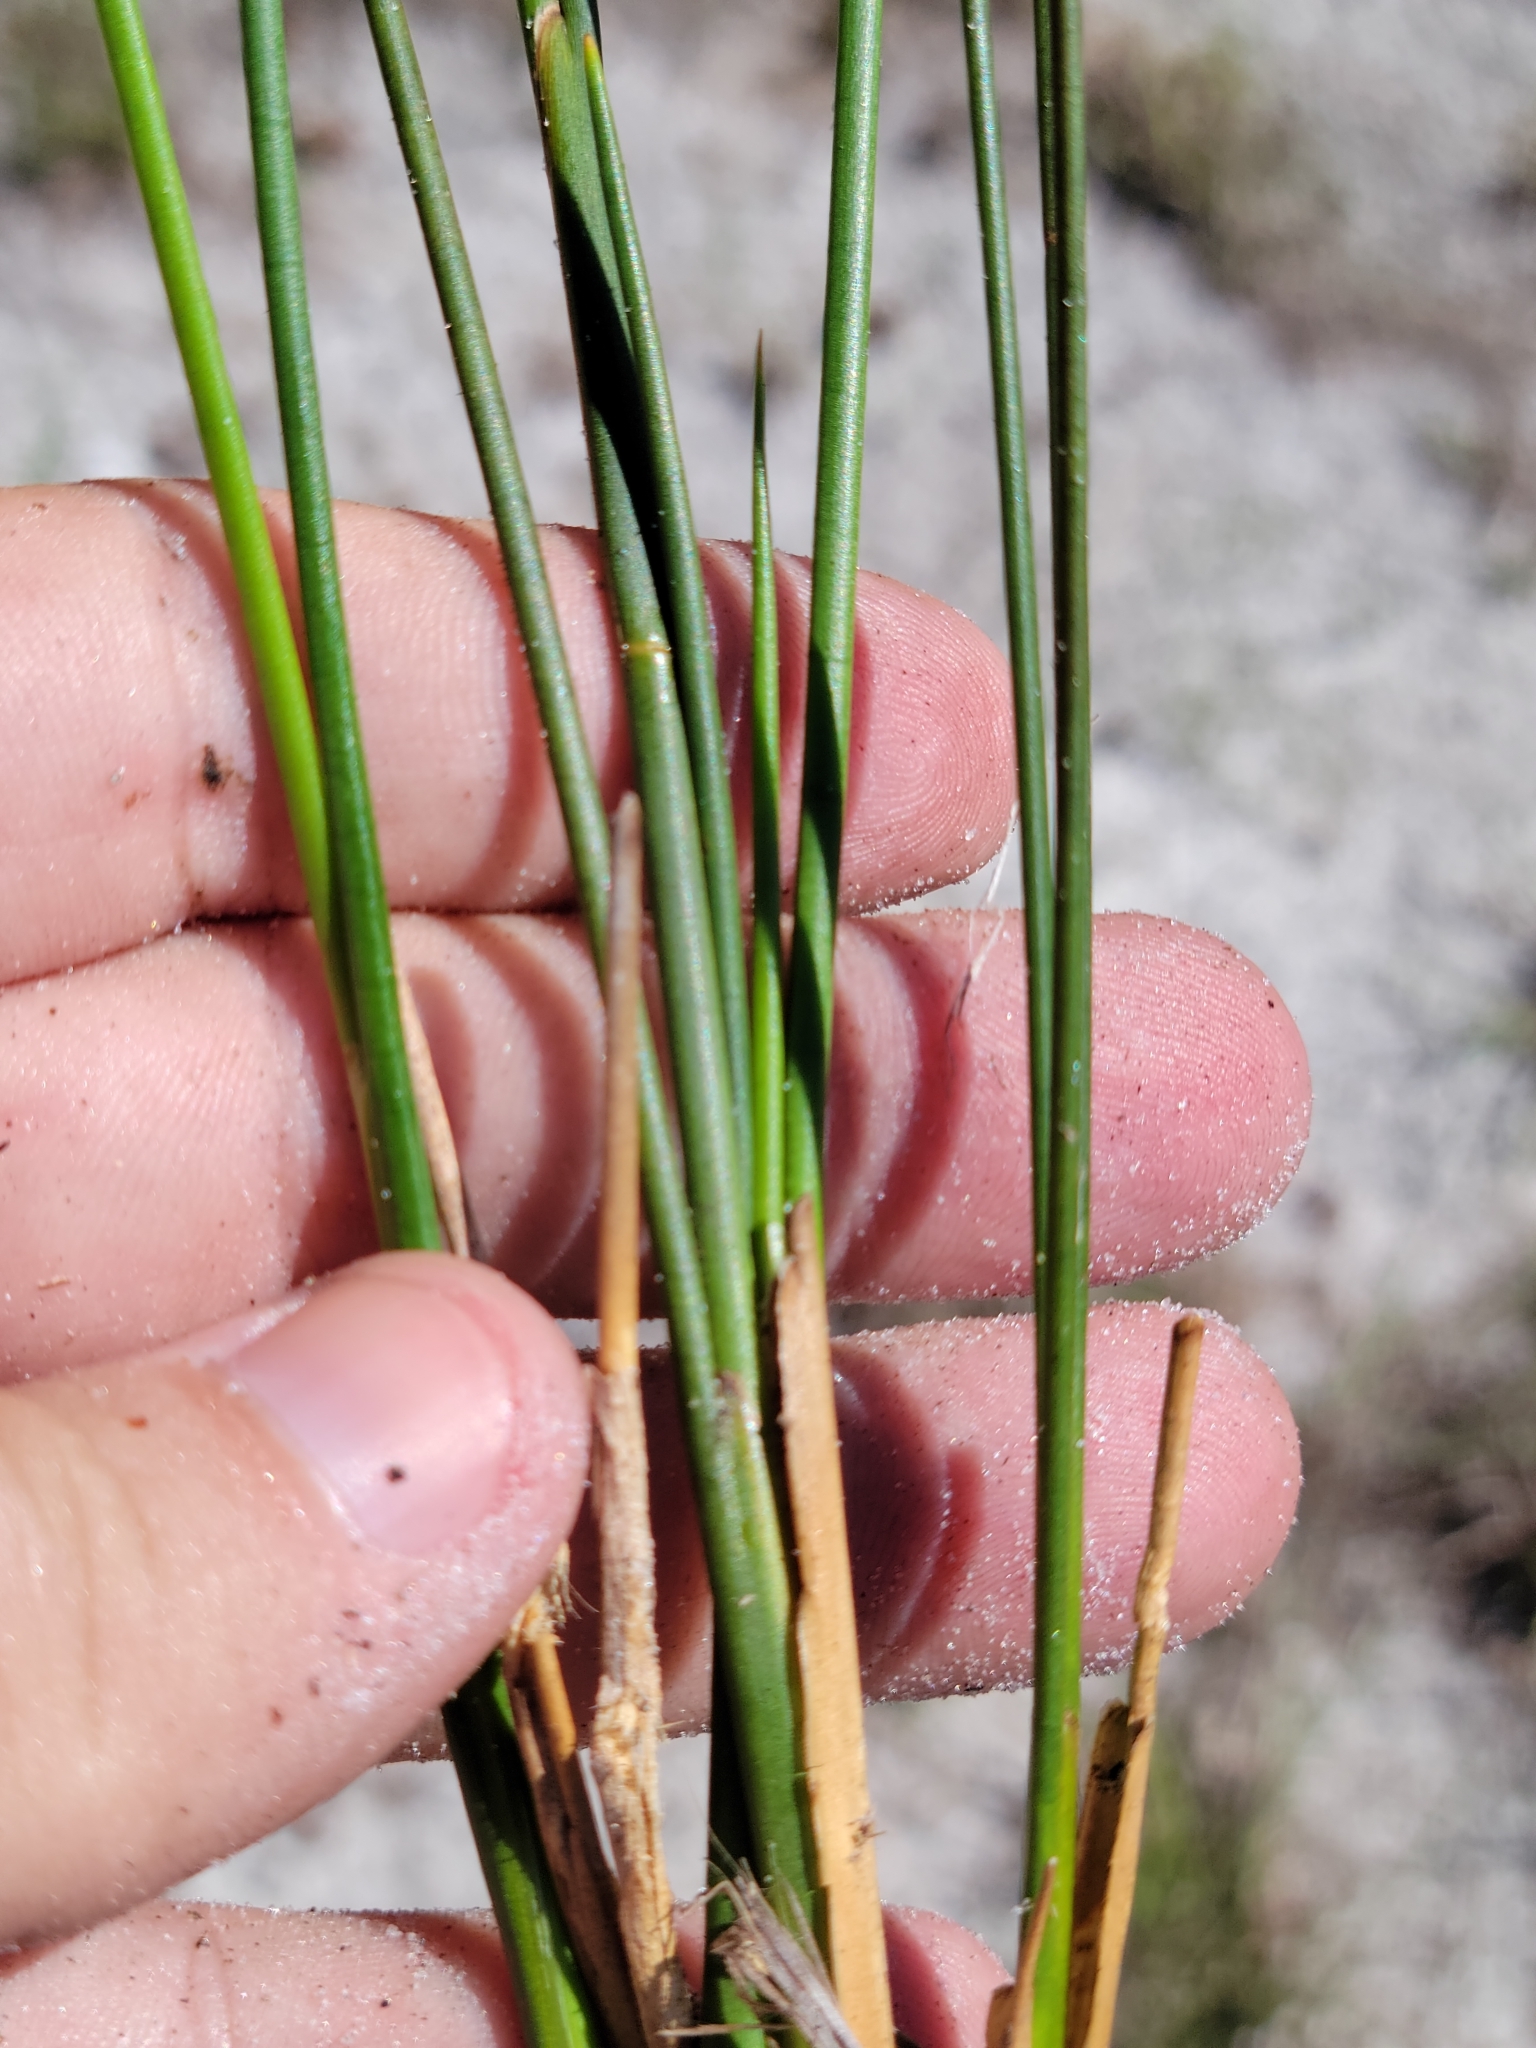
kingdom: Plantae
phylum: Tracheophyta
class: Liliopsida
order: Poales
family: Juncaceae
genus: Juncus
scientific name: Juncus scirpoides
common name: Needlepod rush
